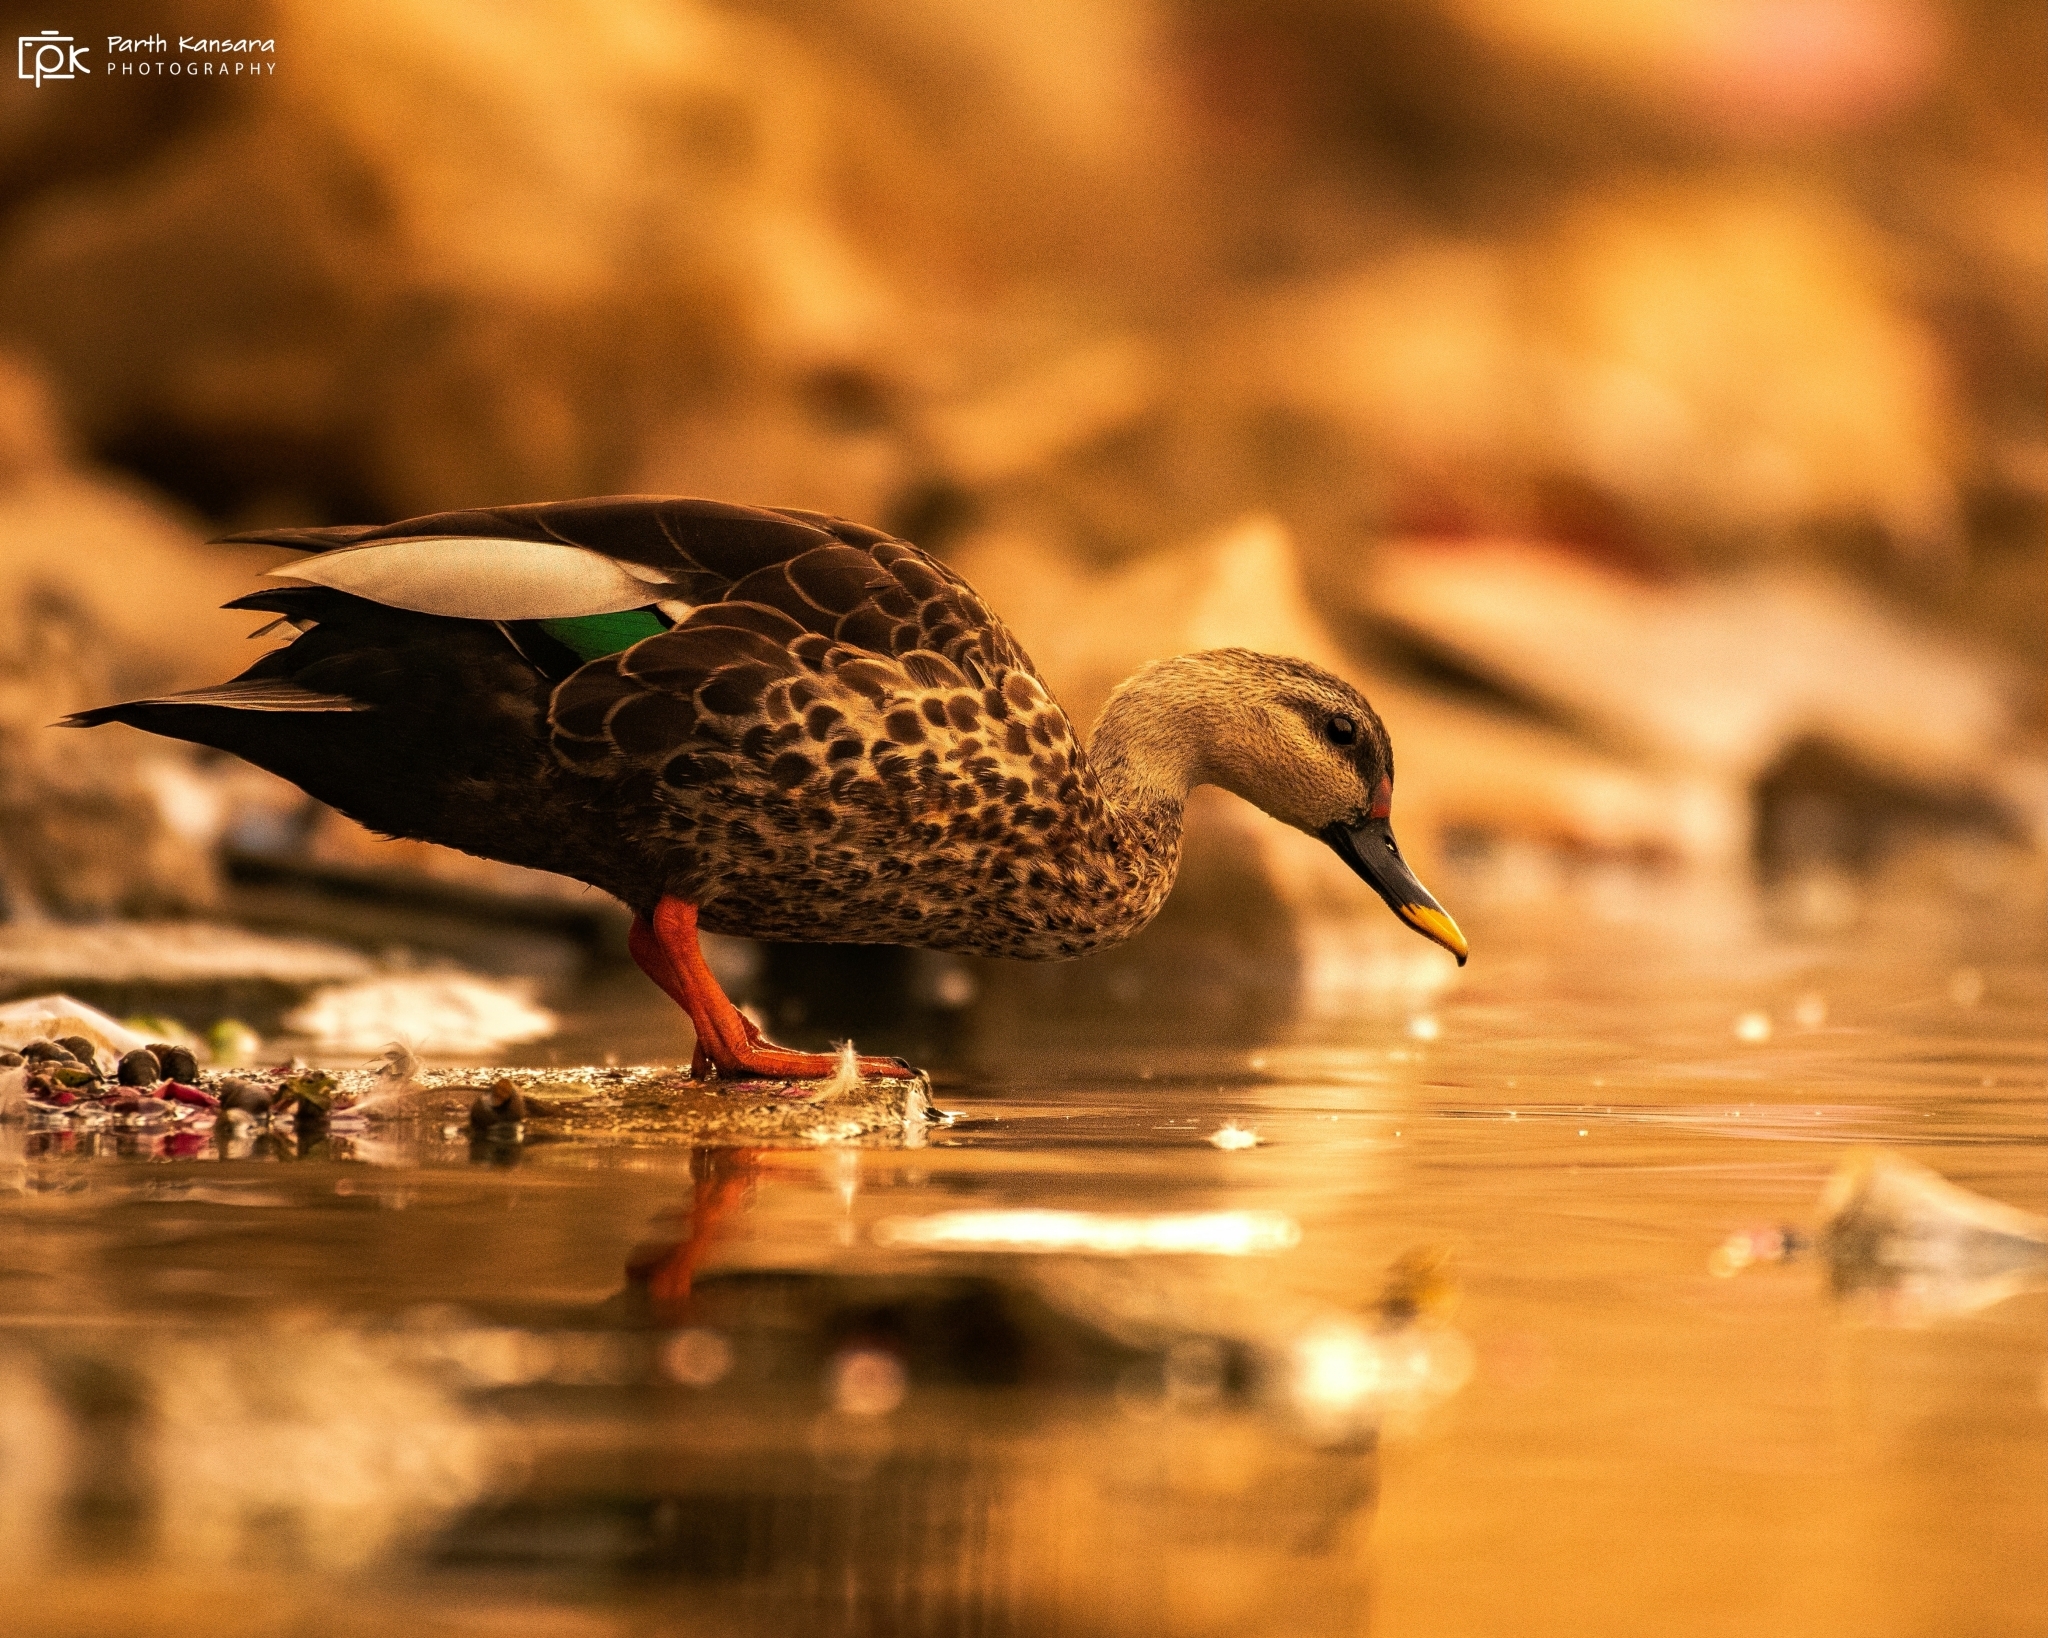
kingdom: Animalia
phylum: Chordata
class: Aves
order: Anseriformes
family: Anatidae
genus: Anas
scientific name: Anas poecilorhyncha
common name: Indian spot-billed duck
